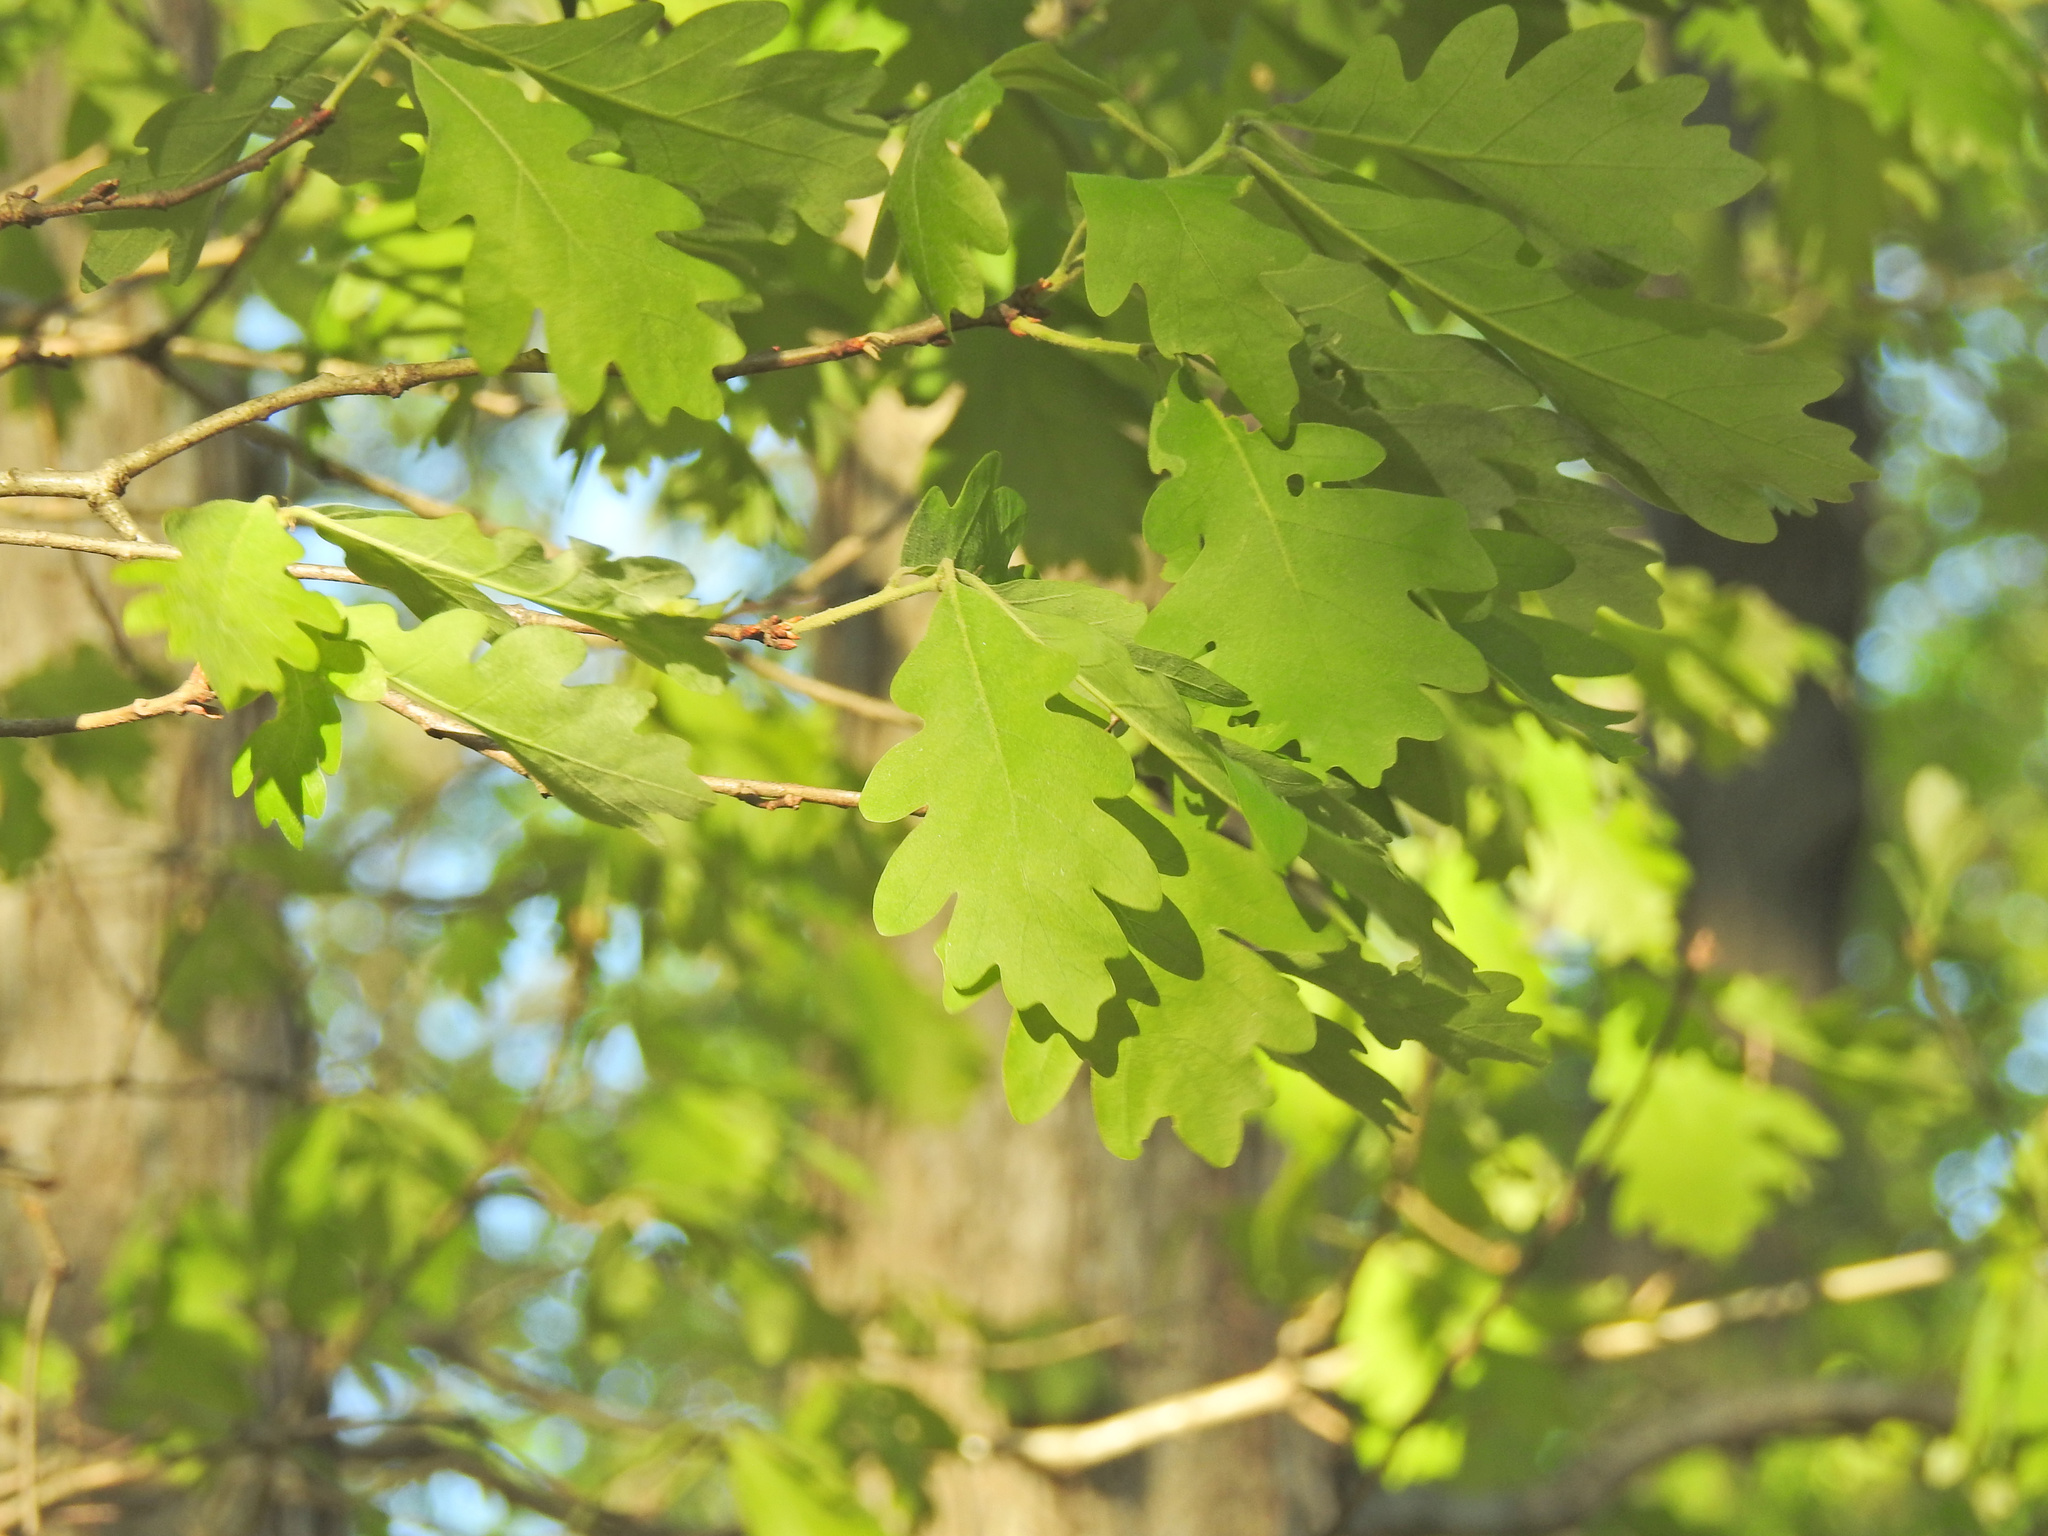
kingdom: Plantae
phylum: Tracheophyta
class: Magnoliopsida
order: Fagales
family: Fagaceae
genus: Quercus
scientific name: Quercus alba
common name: White oak
